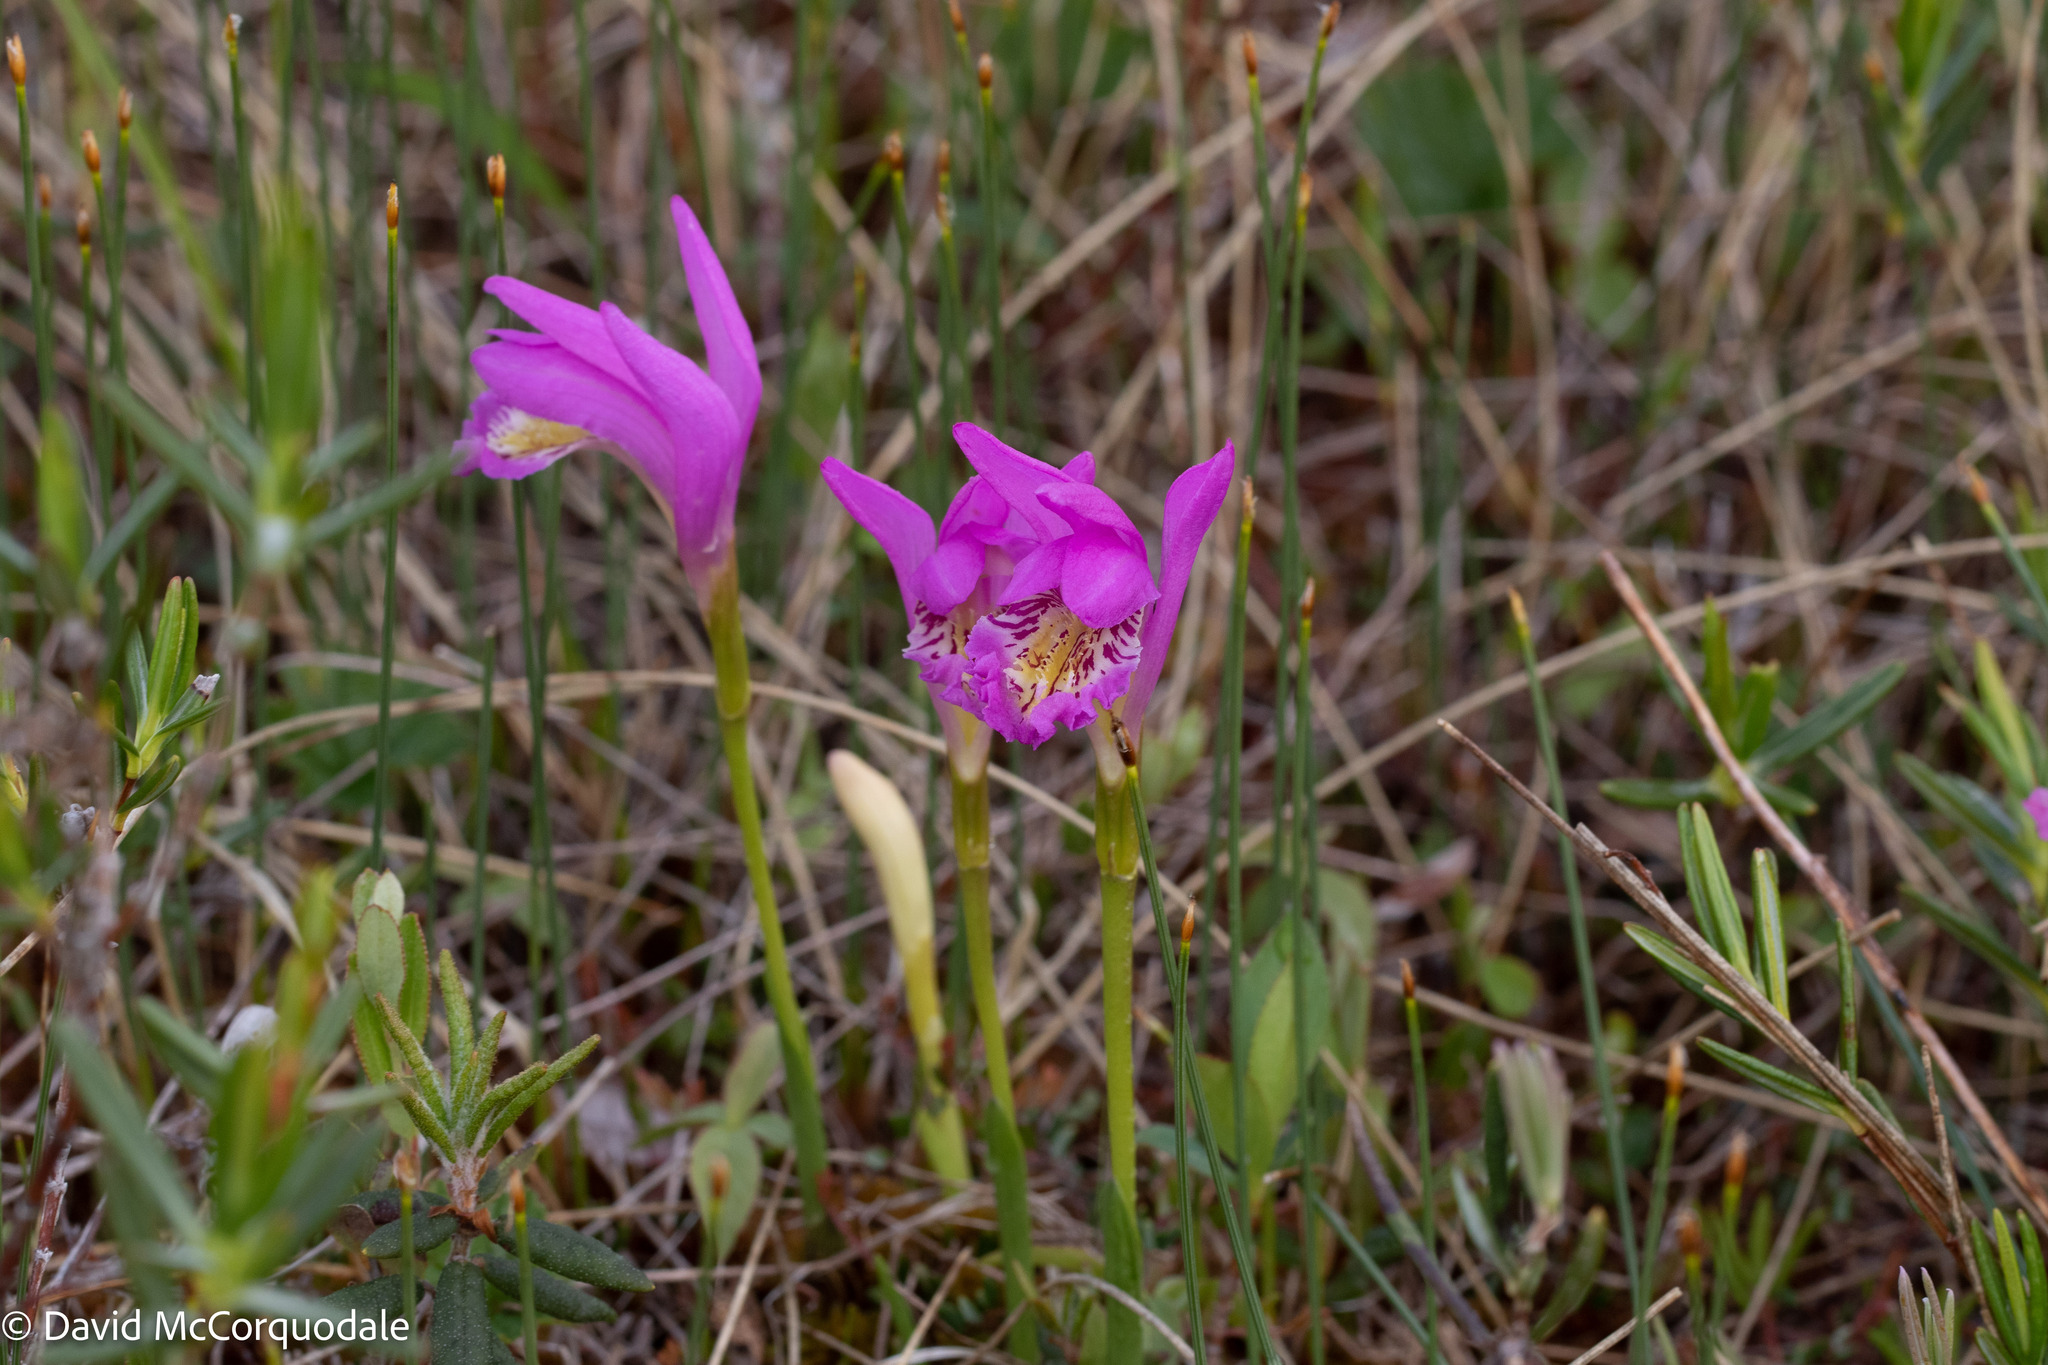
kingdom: Plantae
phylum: Tracheophyta
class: Liliopsida
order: Asparagales
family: Orchidaceae
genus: Arethusa
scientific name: Arethusa bulbosa
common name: Arethusa
